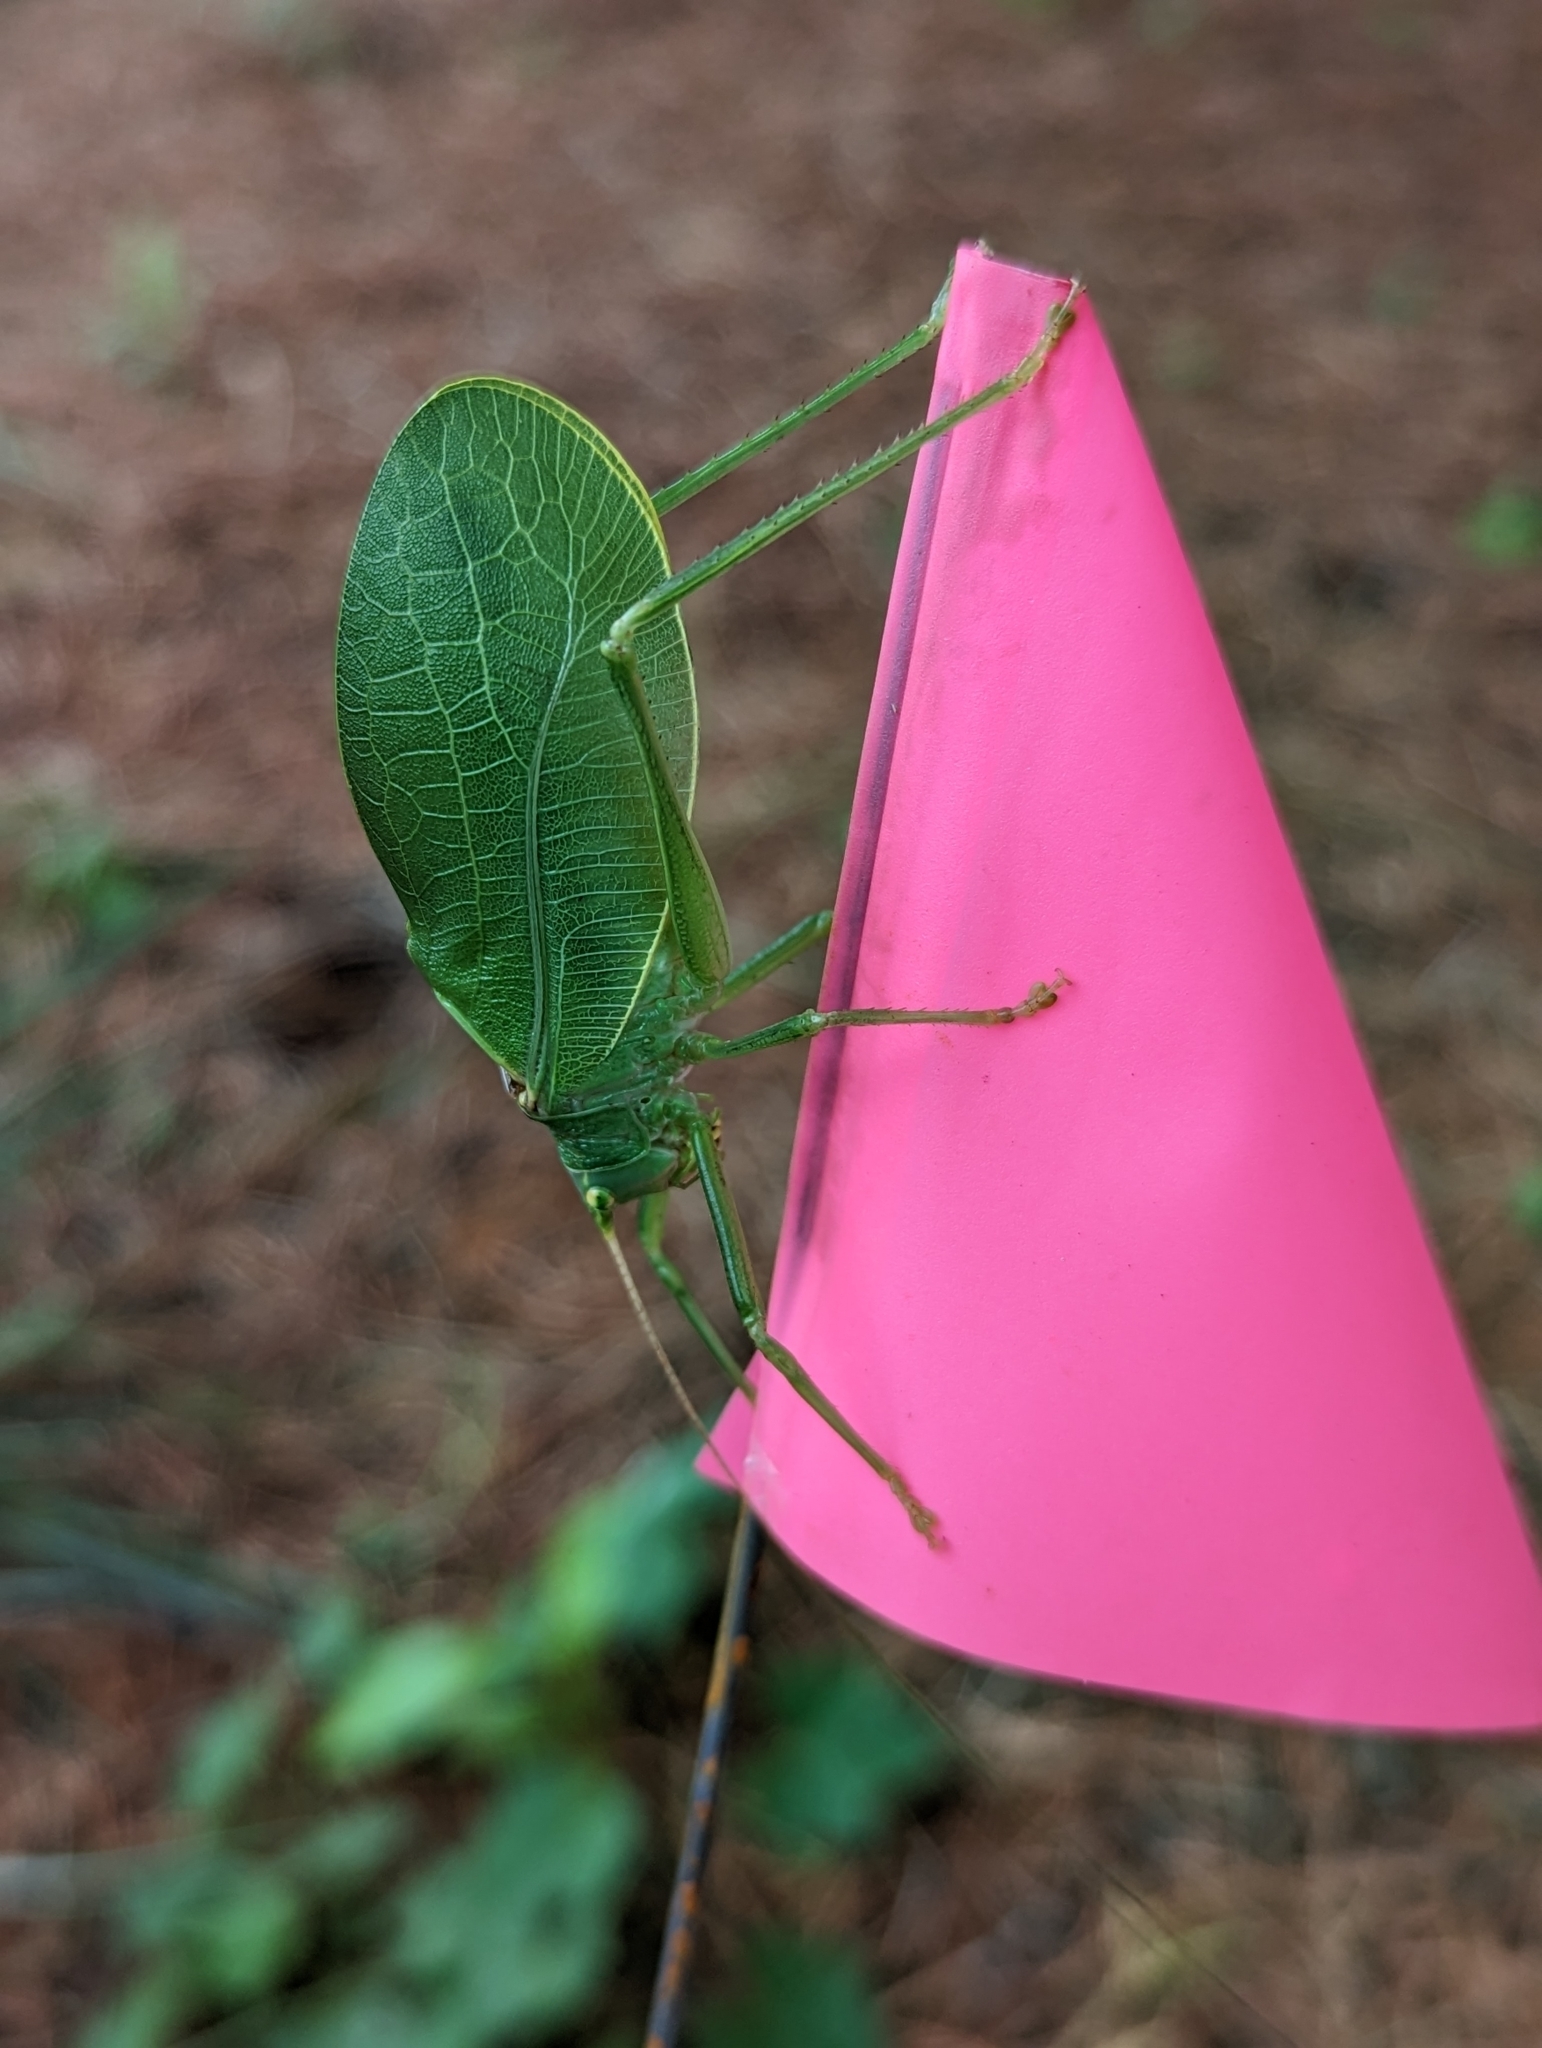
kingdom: Animalia
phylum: Arthropoda
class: Insecta
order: Orthoptera
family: Tettigoniidae
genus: Pterophylla
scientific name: Pterophylla camellifolia
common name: Common true katydid
